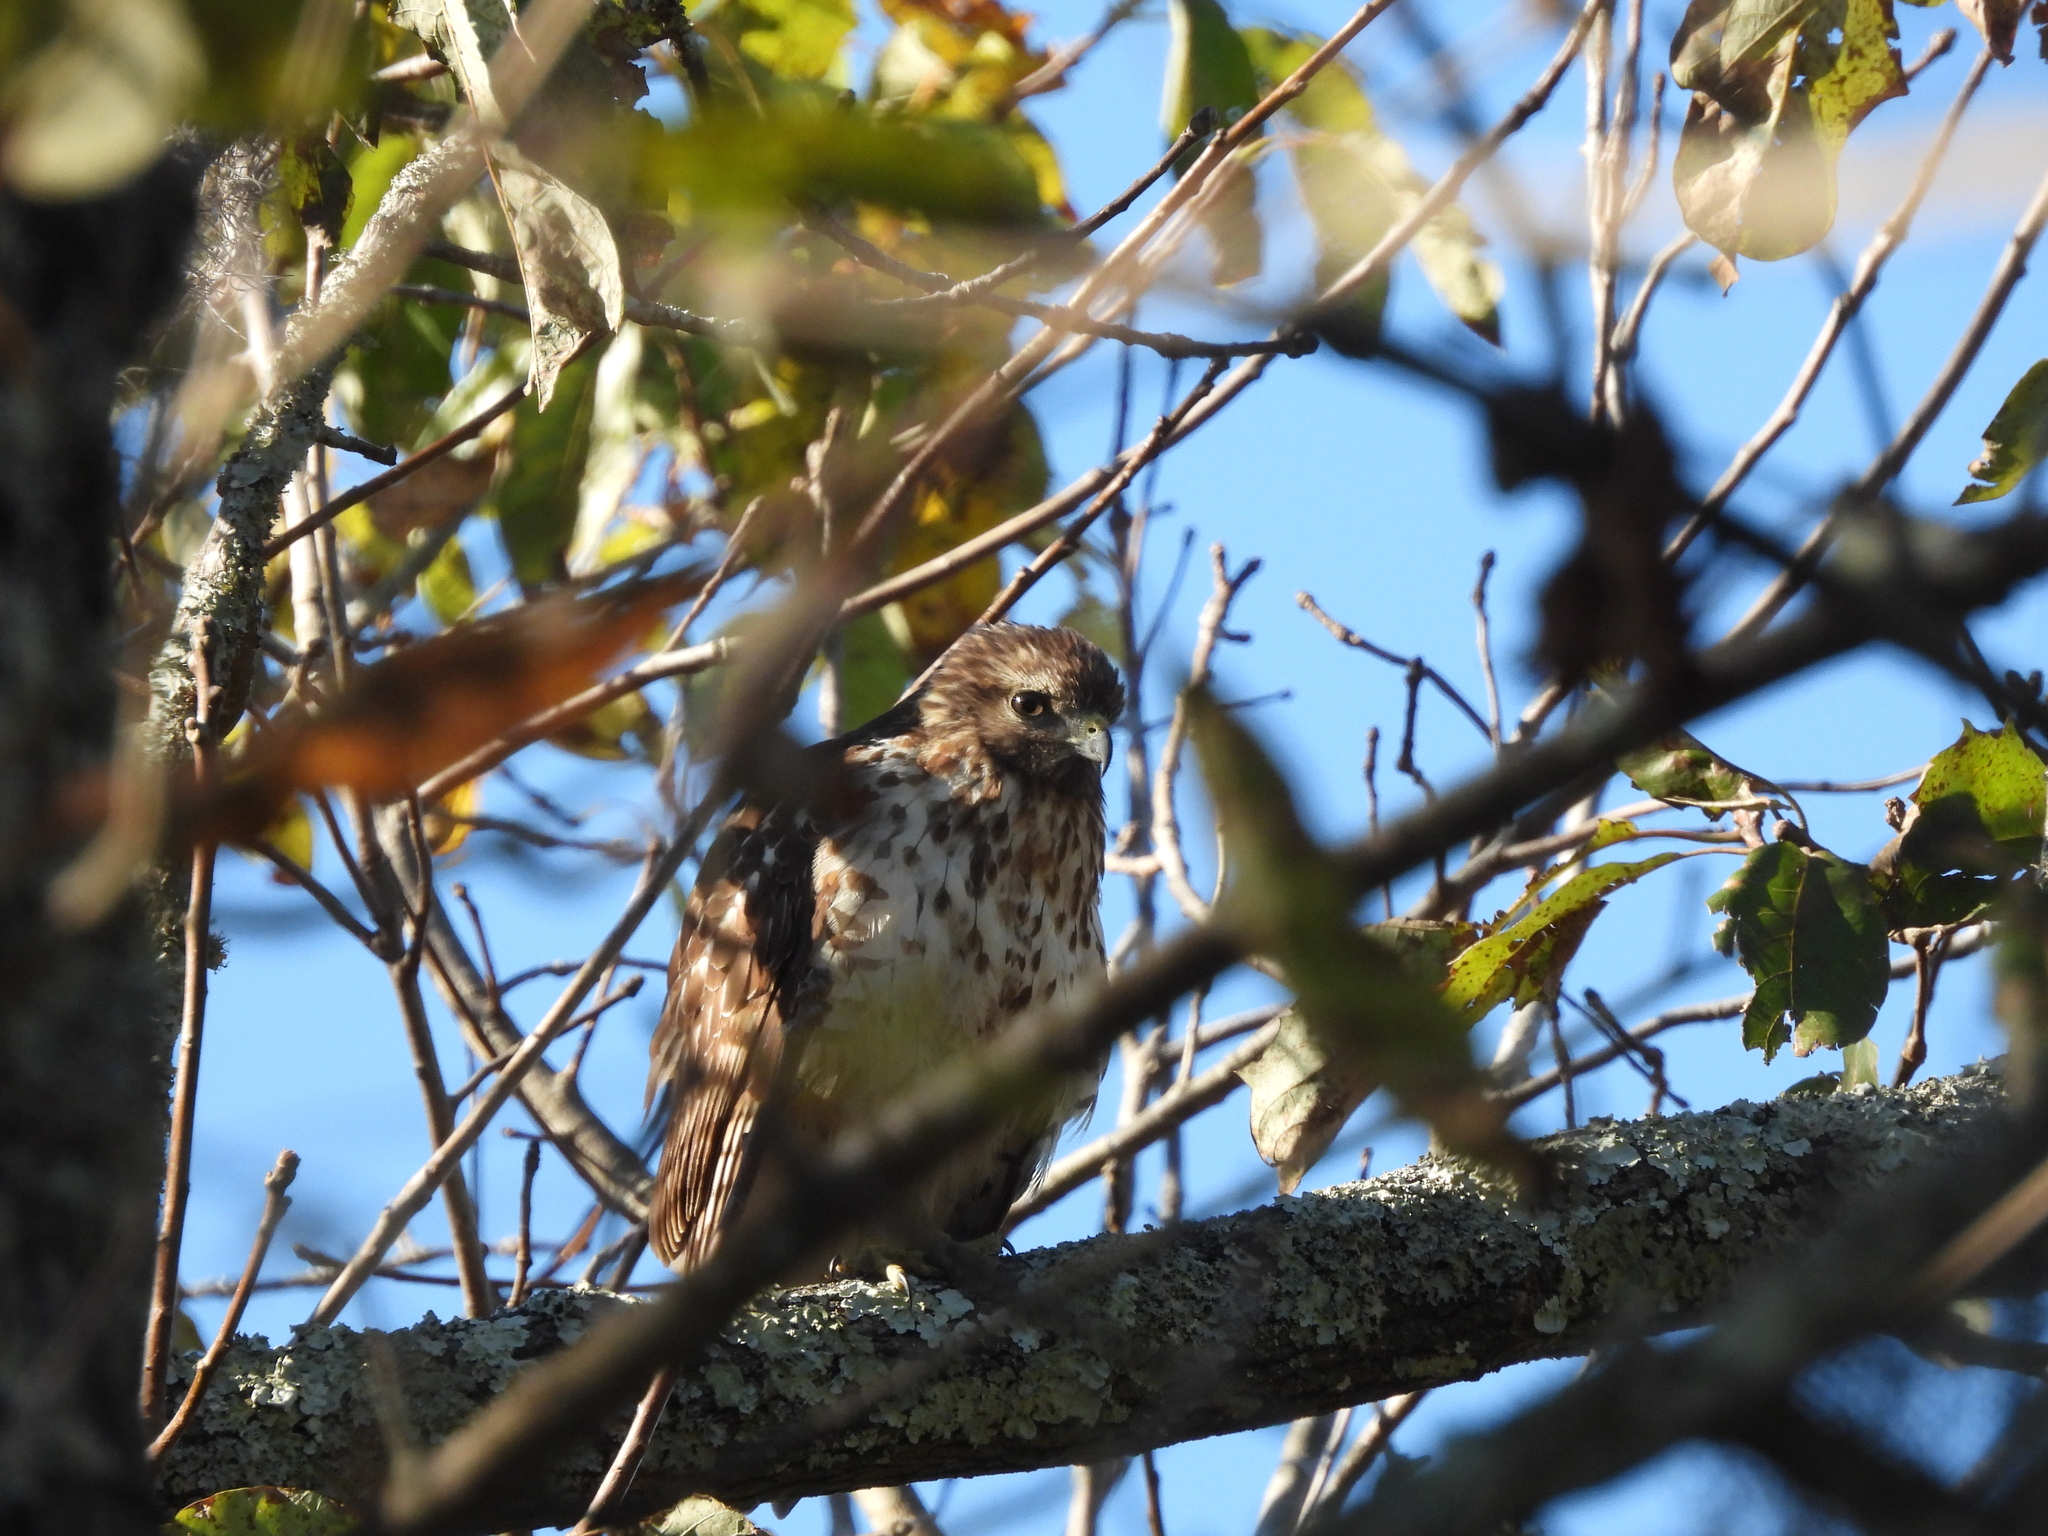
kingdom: Animalia
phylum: Chordata
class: Aves
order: Accipitriformes
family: Accipitridae
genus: Buteo
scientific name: Buteo lineatus
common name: Red-shouldered hawk
